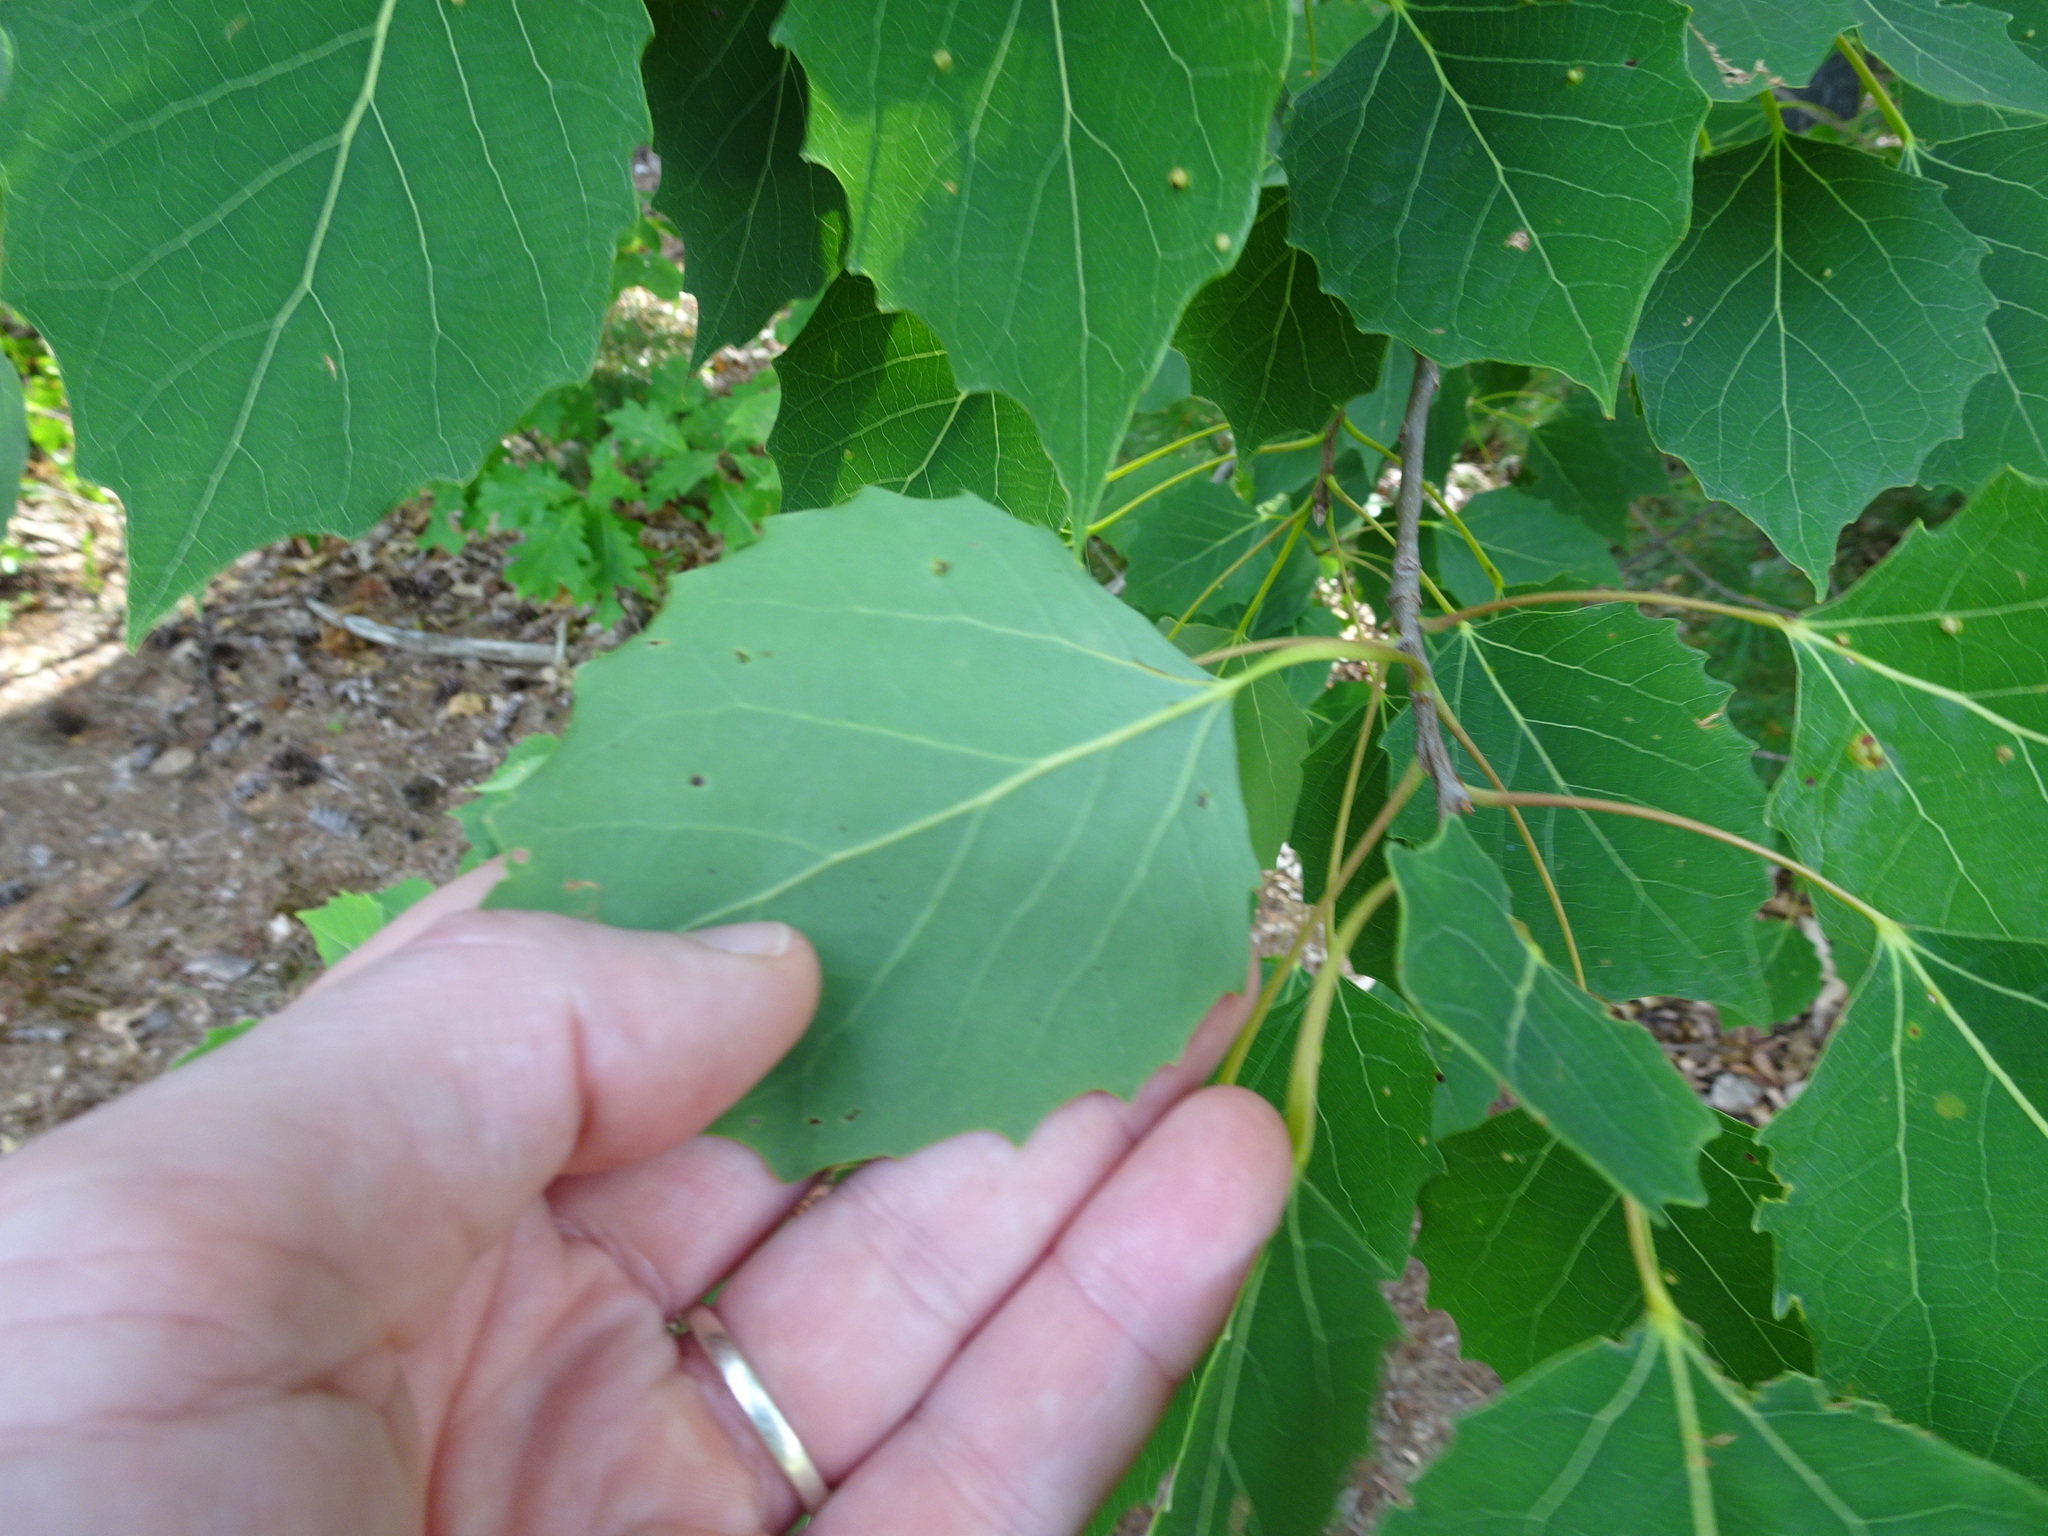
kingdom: Plantae
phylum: Tracheophyta
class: Magnoliopsida
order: Malpighiales
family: Salicaceae
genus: Populus
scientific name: Populus grandidentata
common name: Bigtooth aspen
